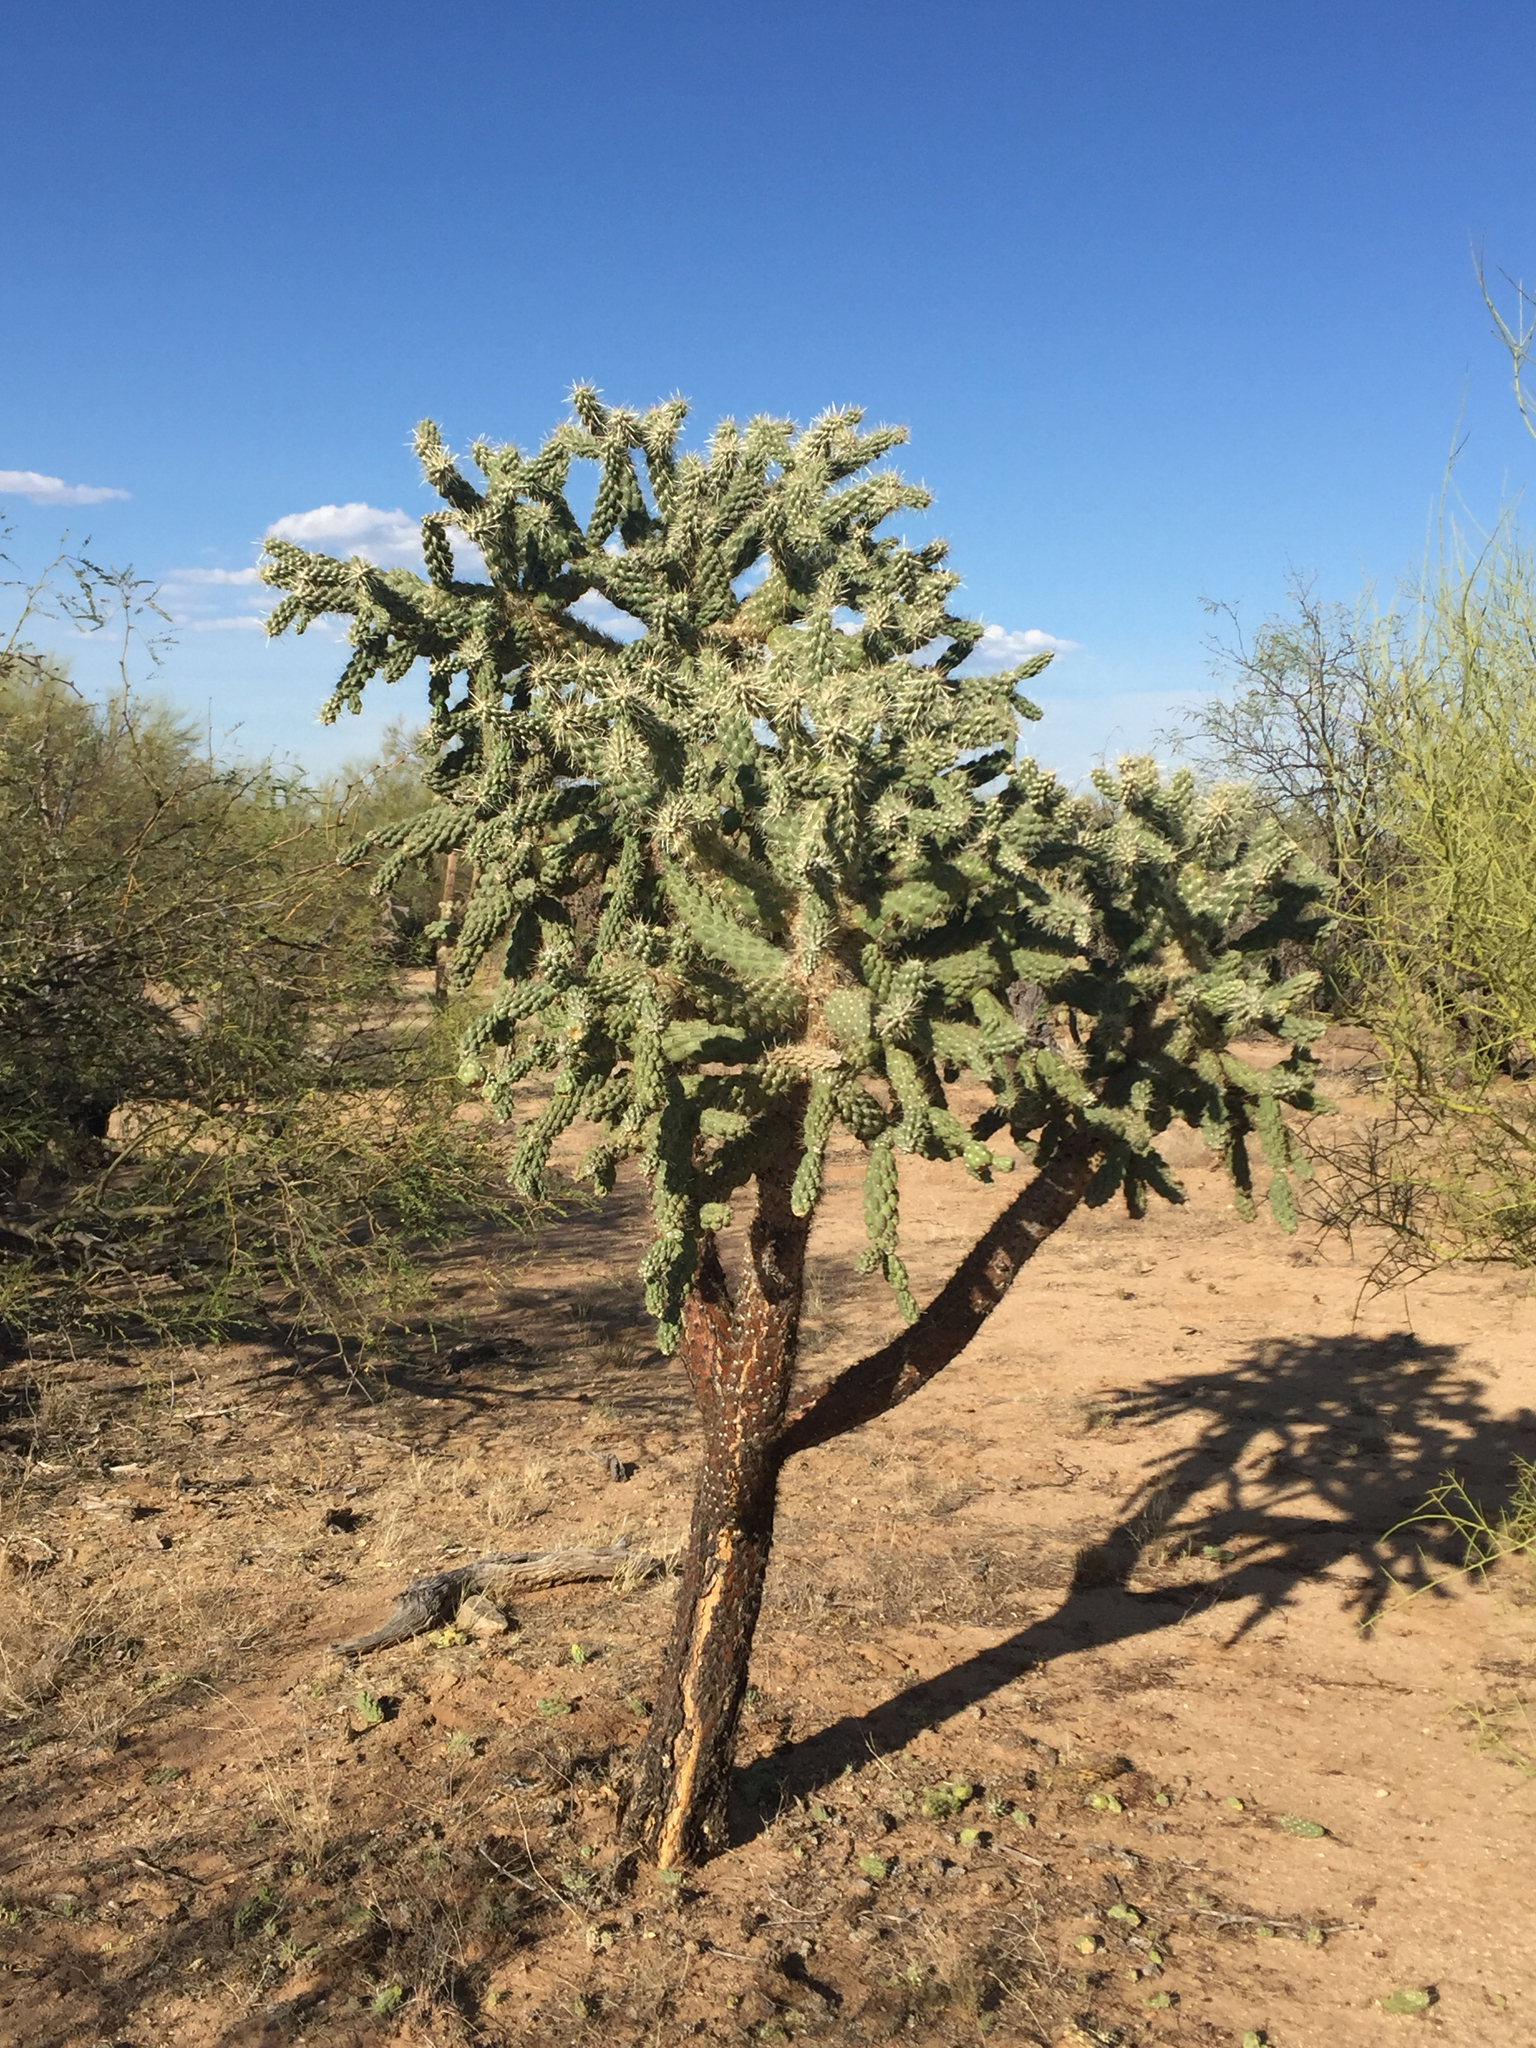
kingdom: Plantae
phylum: Tracheophyta
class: Magnoliopsida
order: Caryophyllales
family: Cactaceae
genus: Cylindropuntia
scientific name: Cylindropuntia fulgida
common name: Jumping cholla
